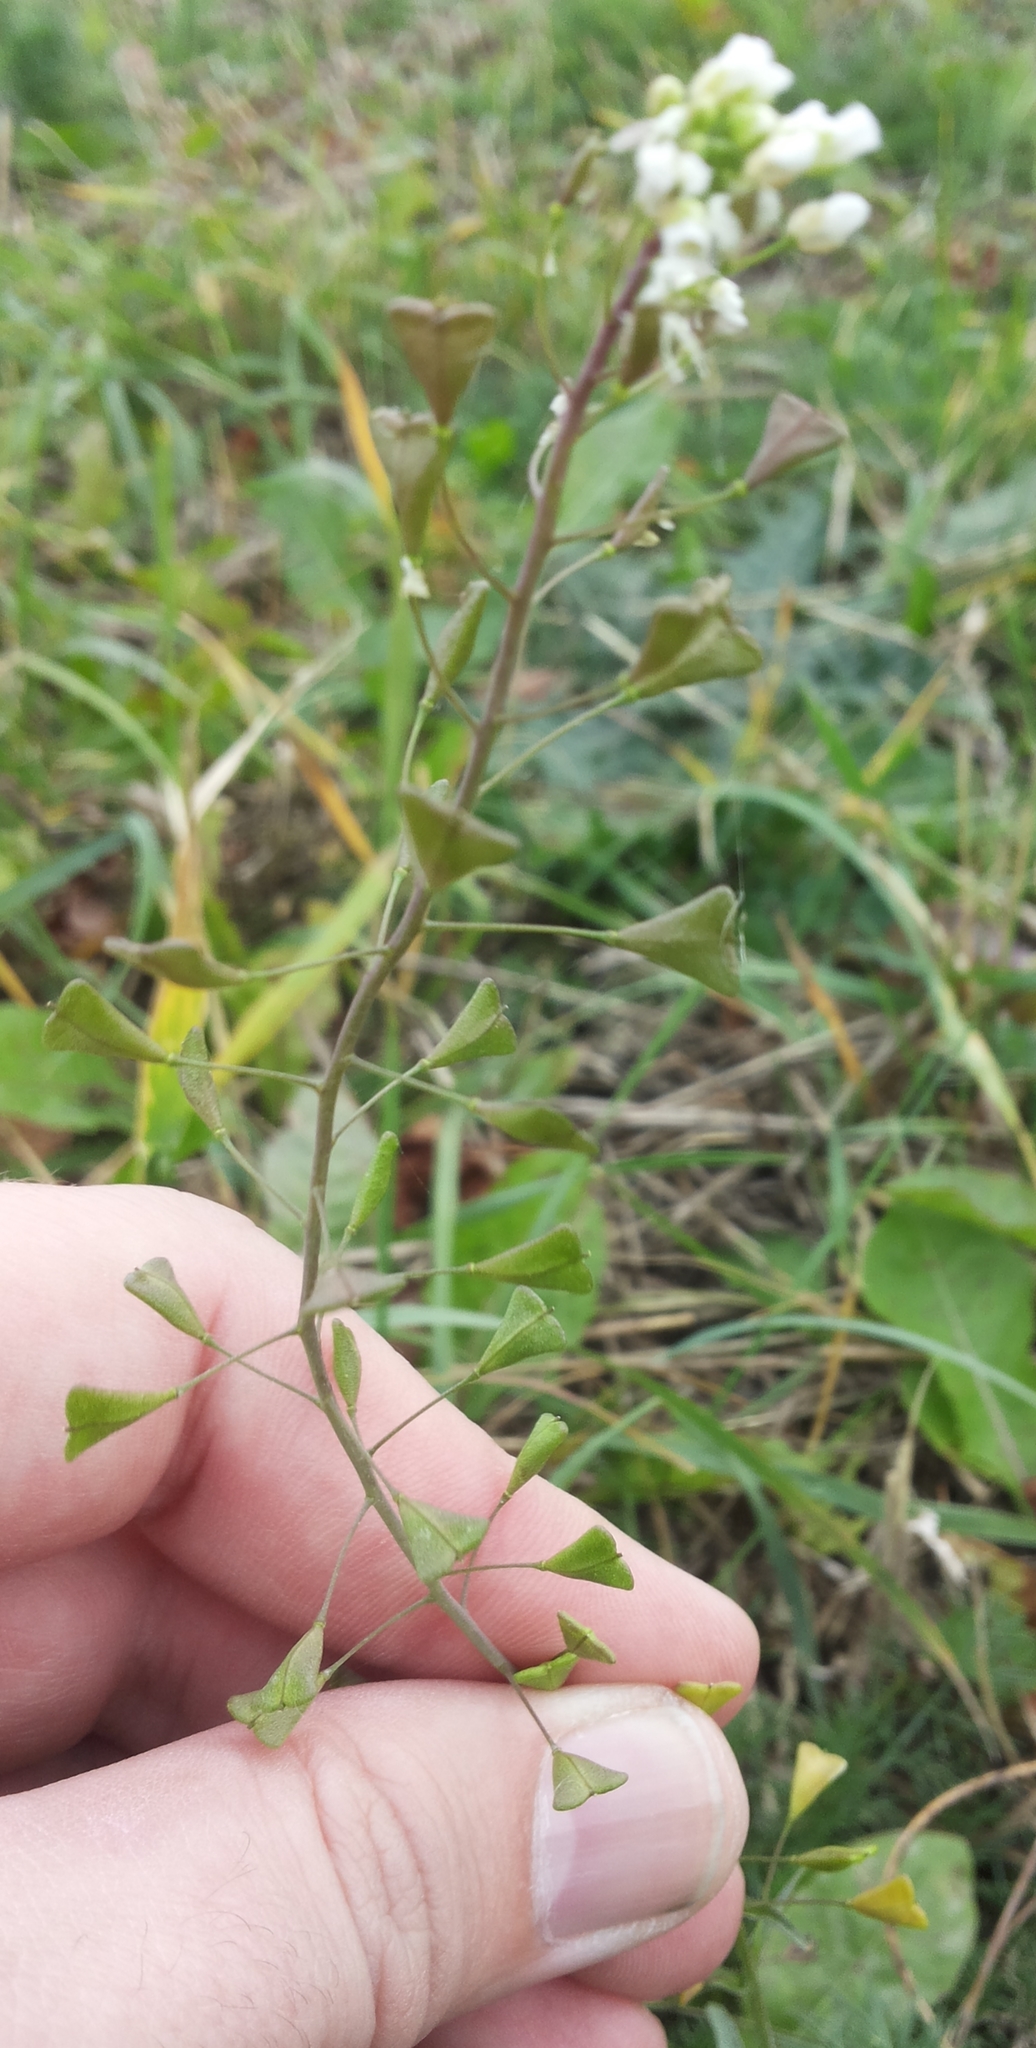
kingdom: Plantae
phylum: Tracheophyta
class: Magnoliopsida
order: Brassicales
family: Brassicaceae
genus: Capsella
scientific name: Capsella bursa-pastoris
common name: Shepherd's purse
